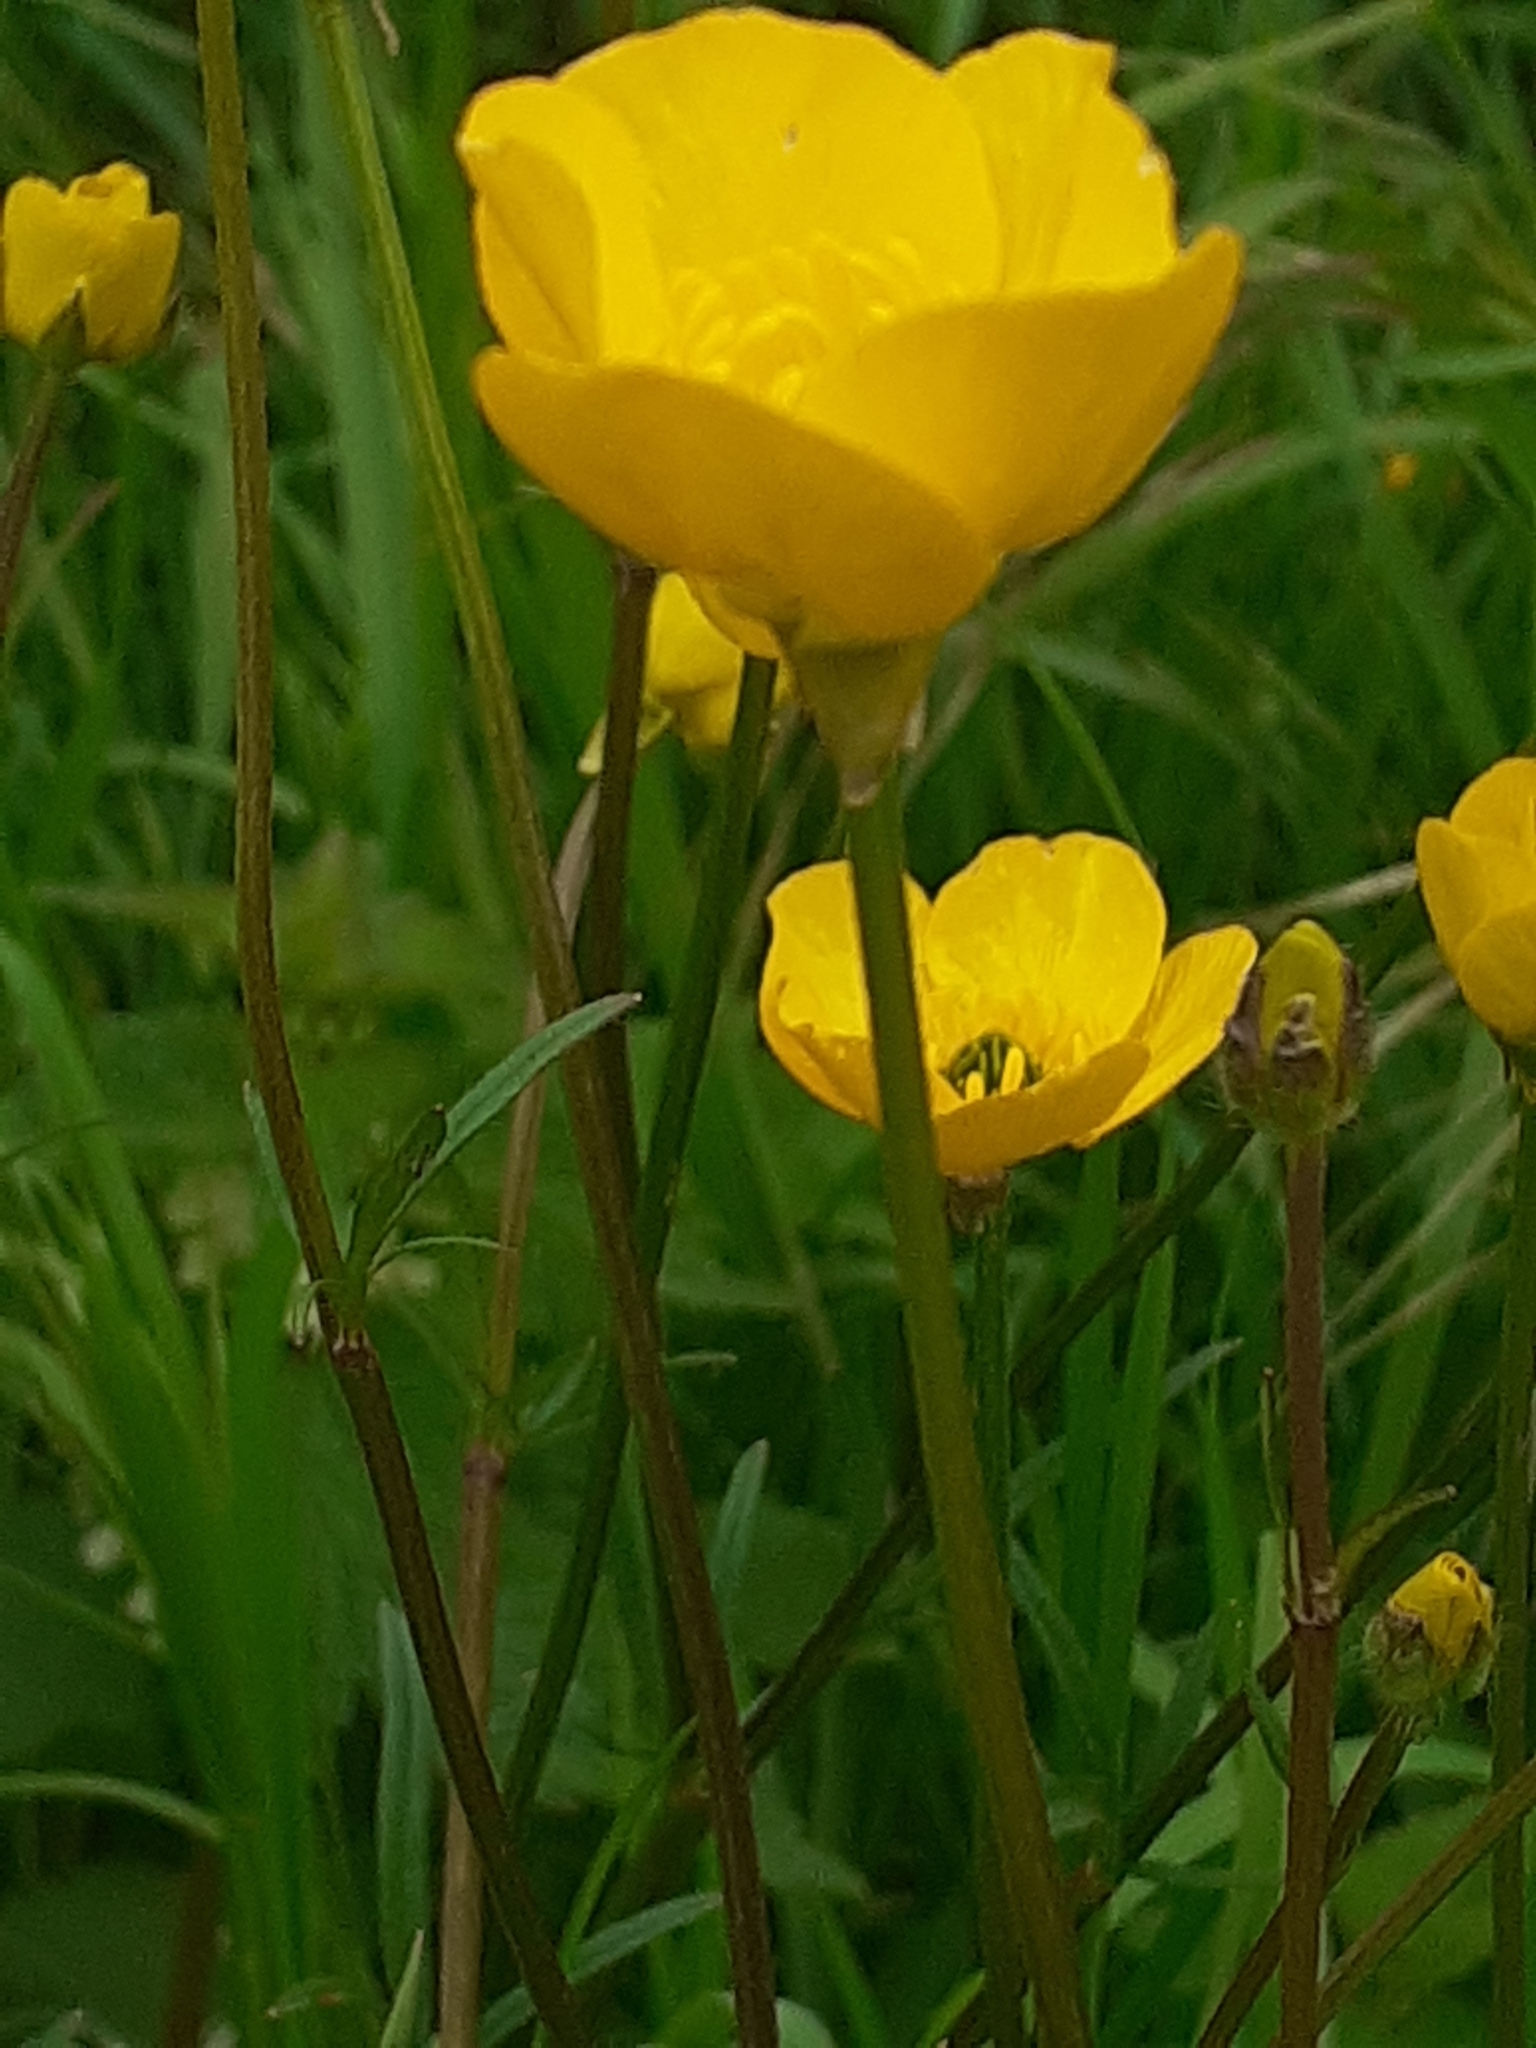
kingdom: Plantae
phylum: Tracheophyta
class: Magnoliopsida
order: Ranunculales
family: Ranunculaceae
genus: Ranunculus
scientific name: Ranunculus bulbosus
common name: Bulbous buttercup
